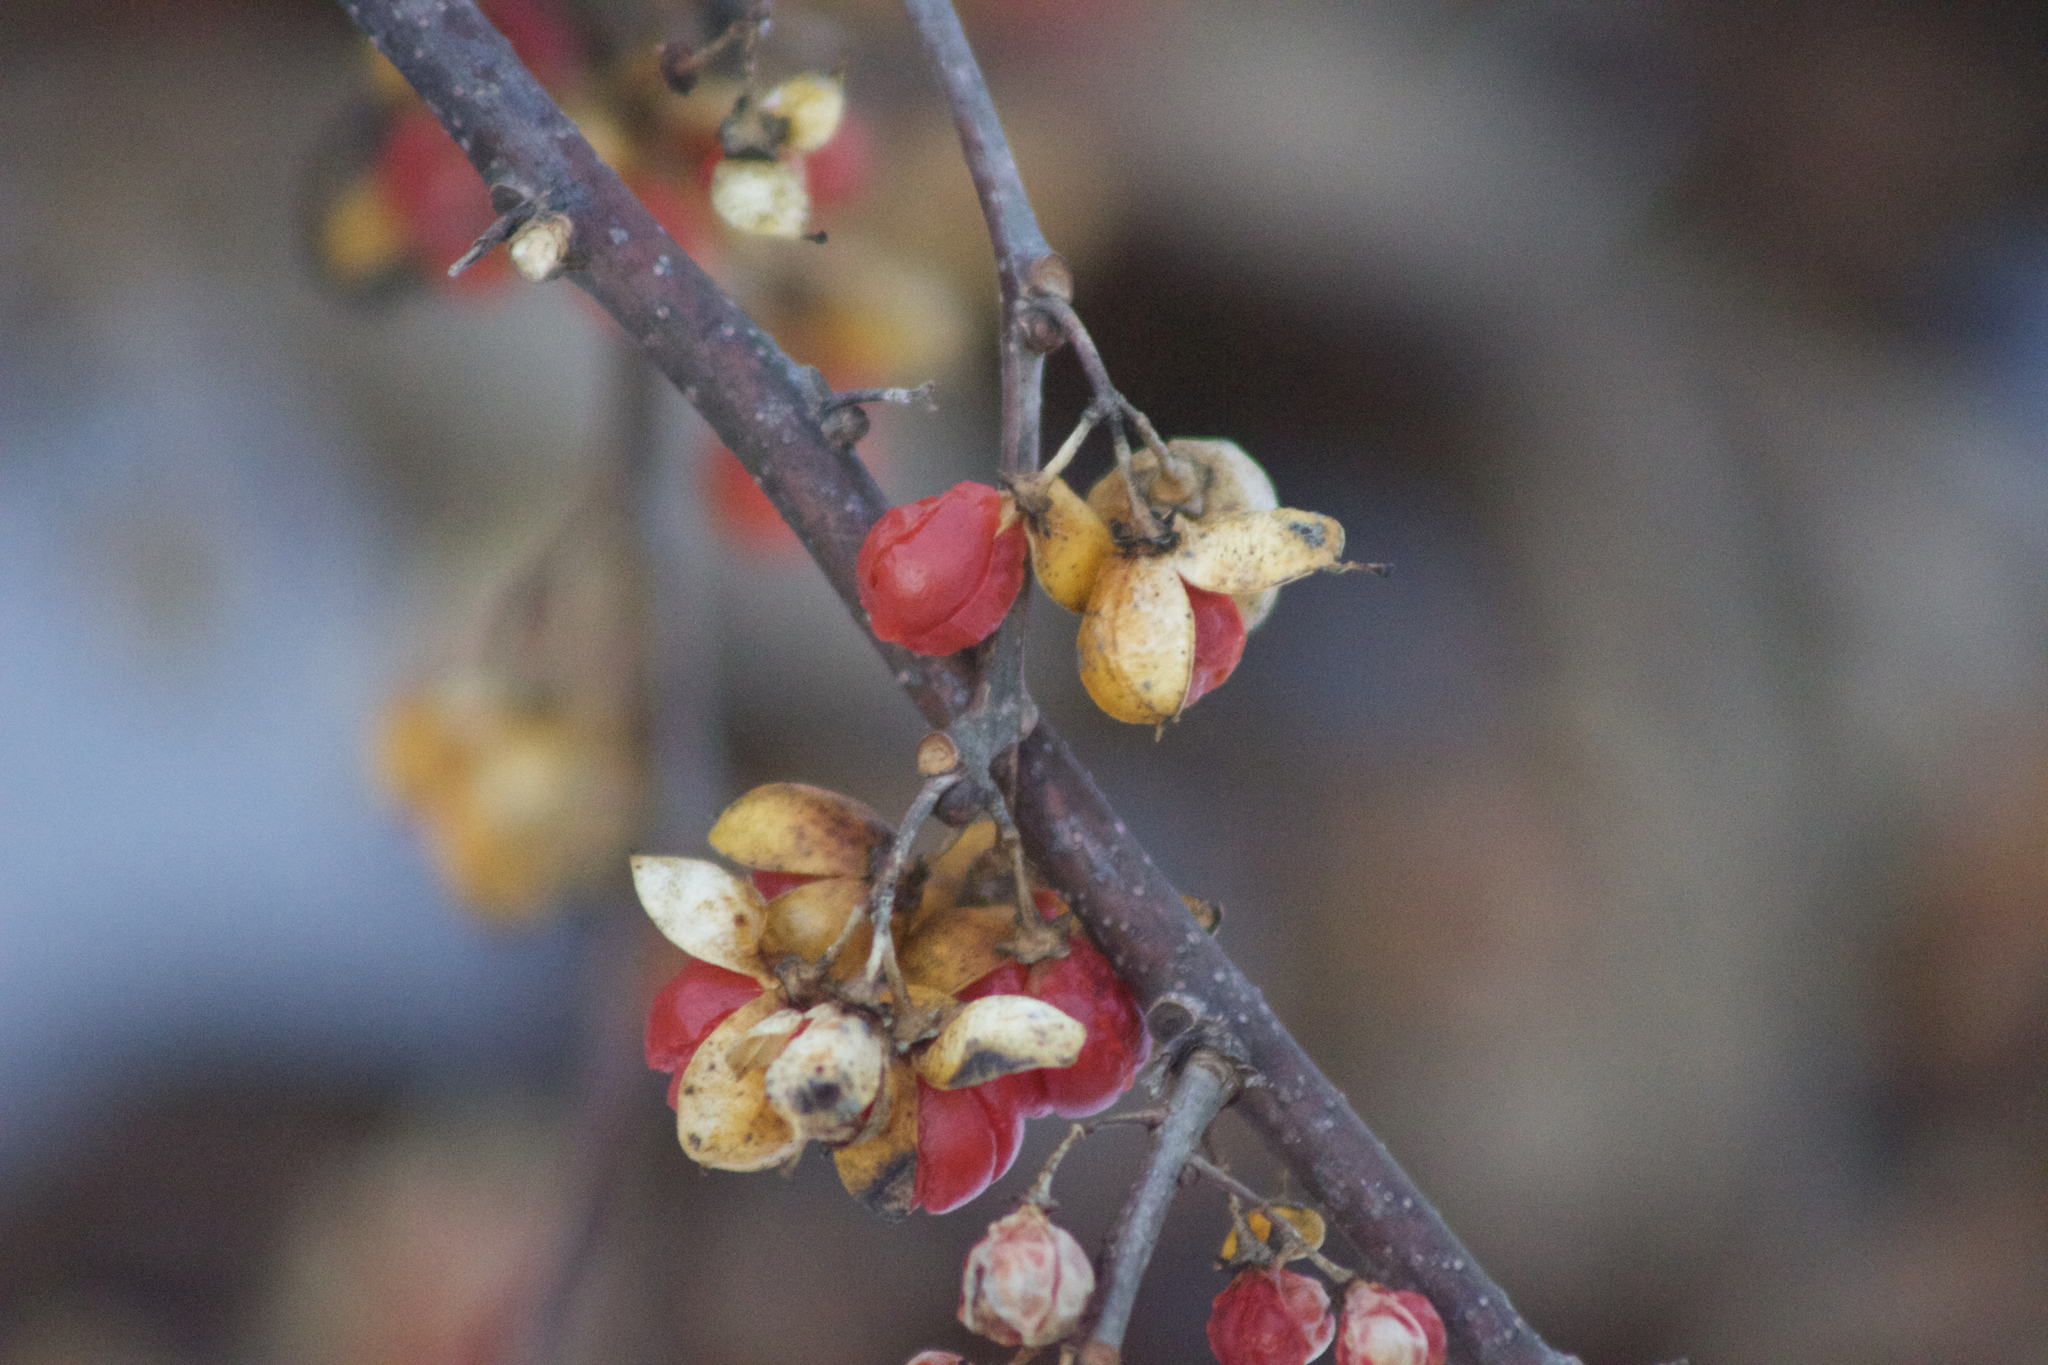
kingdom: Plantae
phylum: Tracheophyta
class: Magnoliopsida
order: Celastrales
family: Celastraceae
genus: Celastrus
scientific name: Celastrus orbiculatus
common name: Oriental bittersweet
